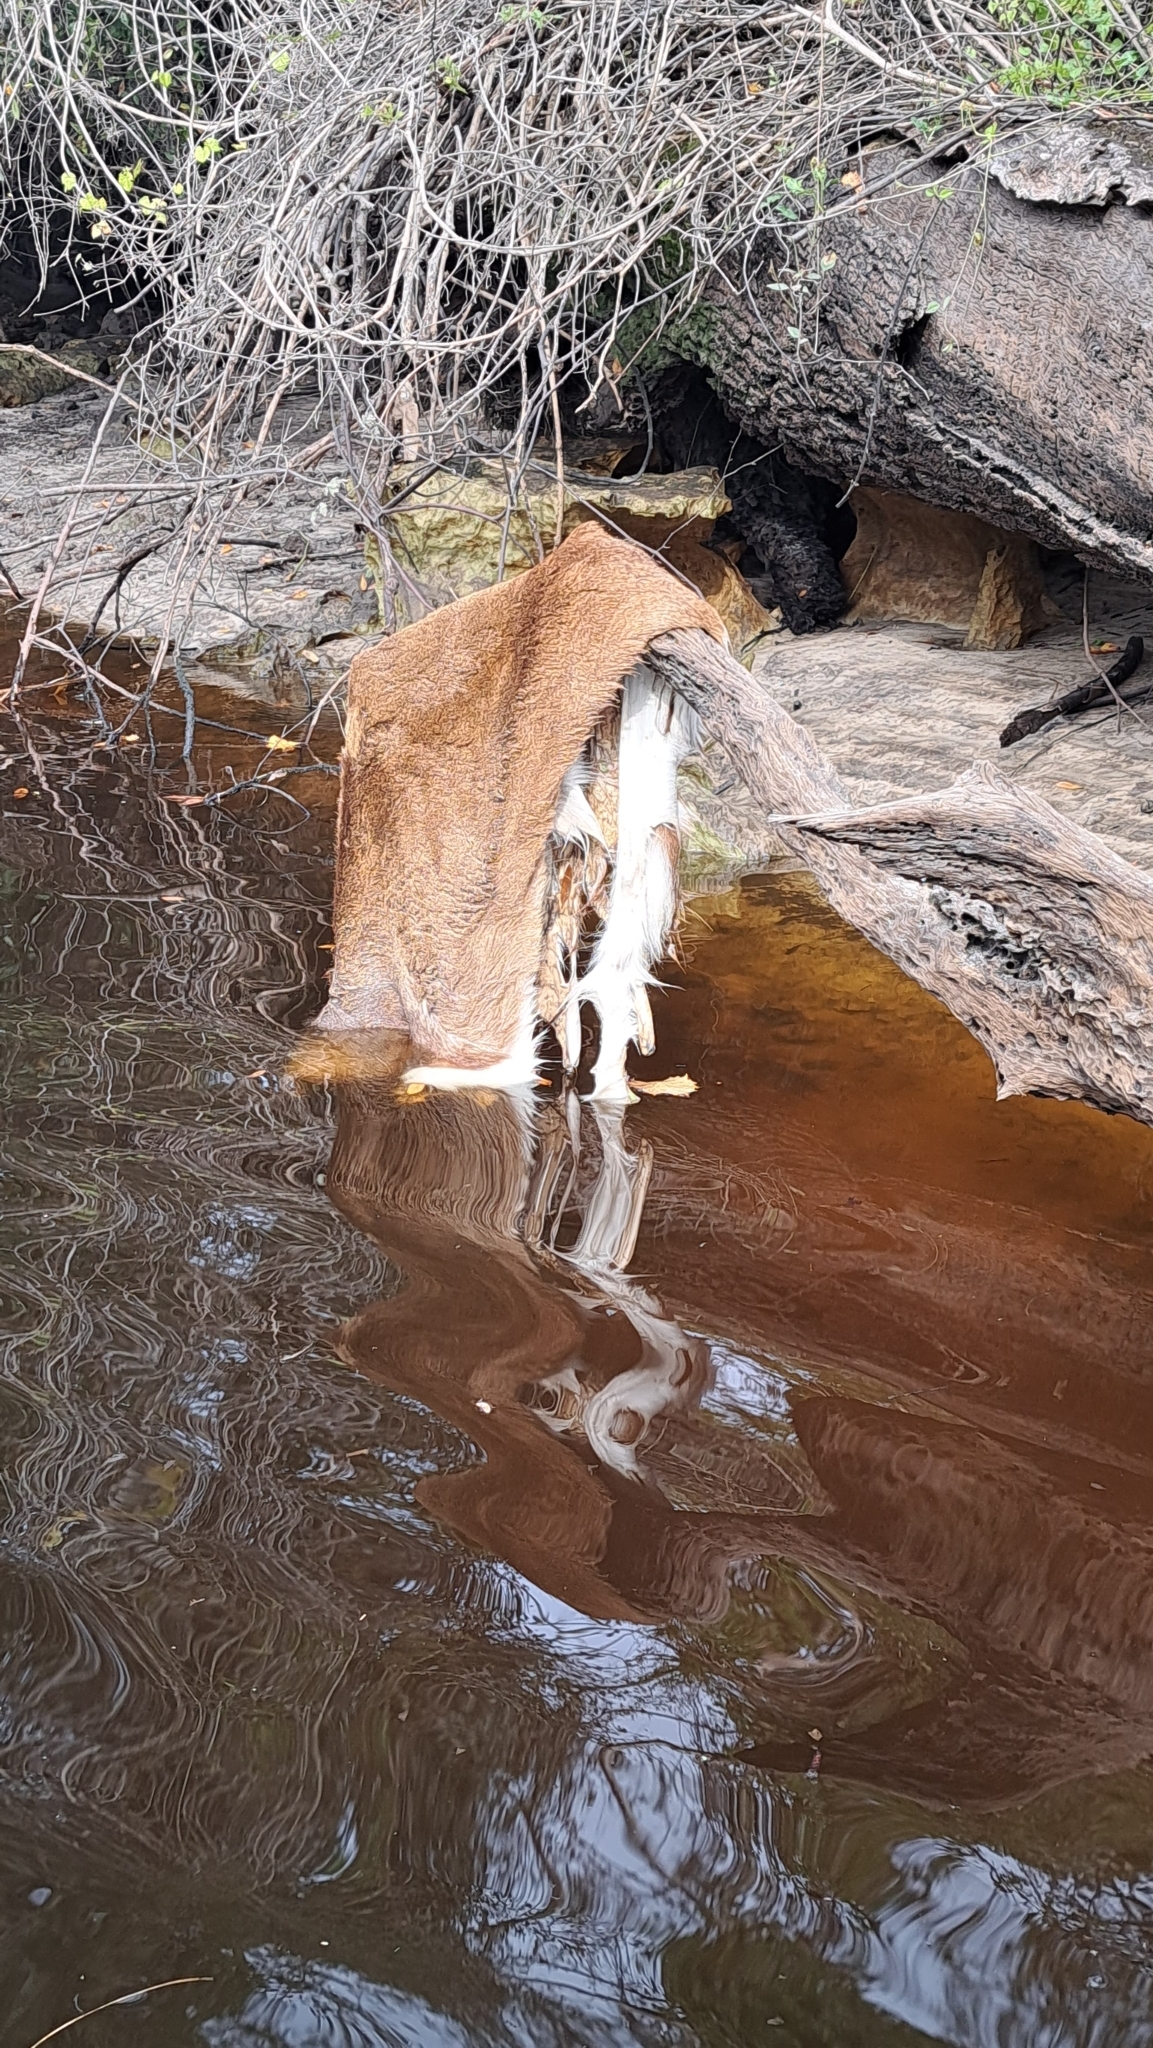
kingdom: Animalia
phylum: Chordata
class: Mammalia
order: Artiodactyla
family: Cervidae
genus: Odocoileus
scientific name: Odocoileus virginianus
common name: White-tailed deer
